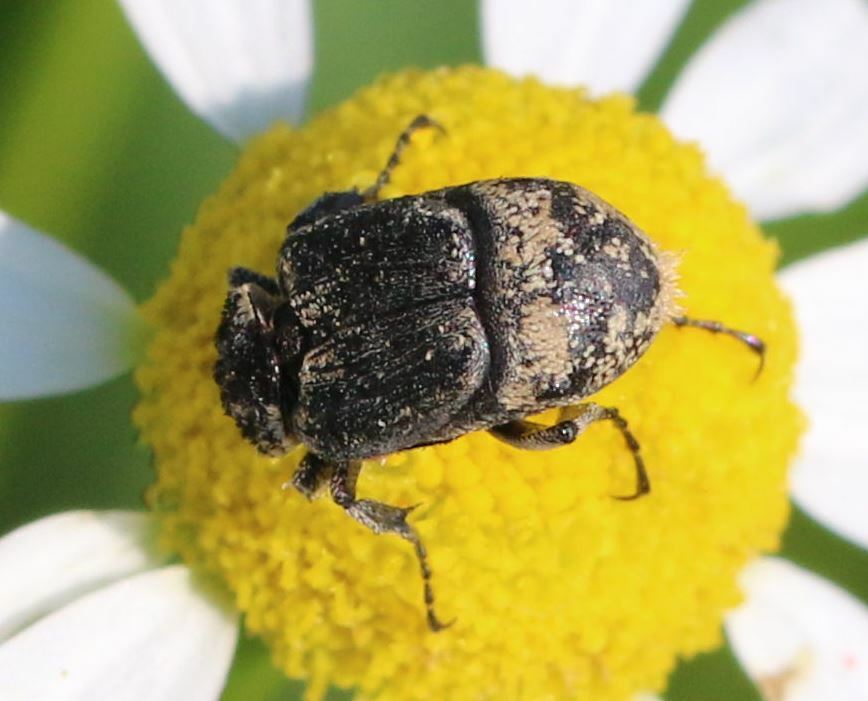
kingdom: Animalia
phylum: Arthropoda
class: Insecta
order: Coleoptera
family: Scarabaeidae
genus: Valgus
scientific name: Valgus hemipterus
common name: Bug flower chafer
